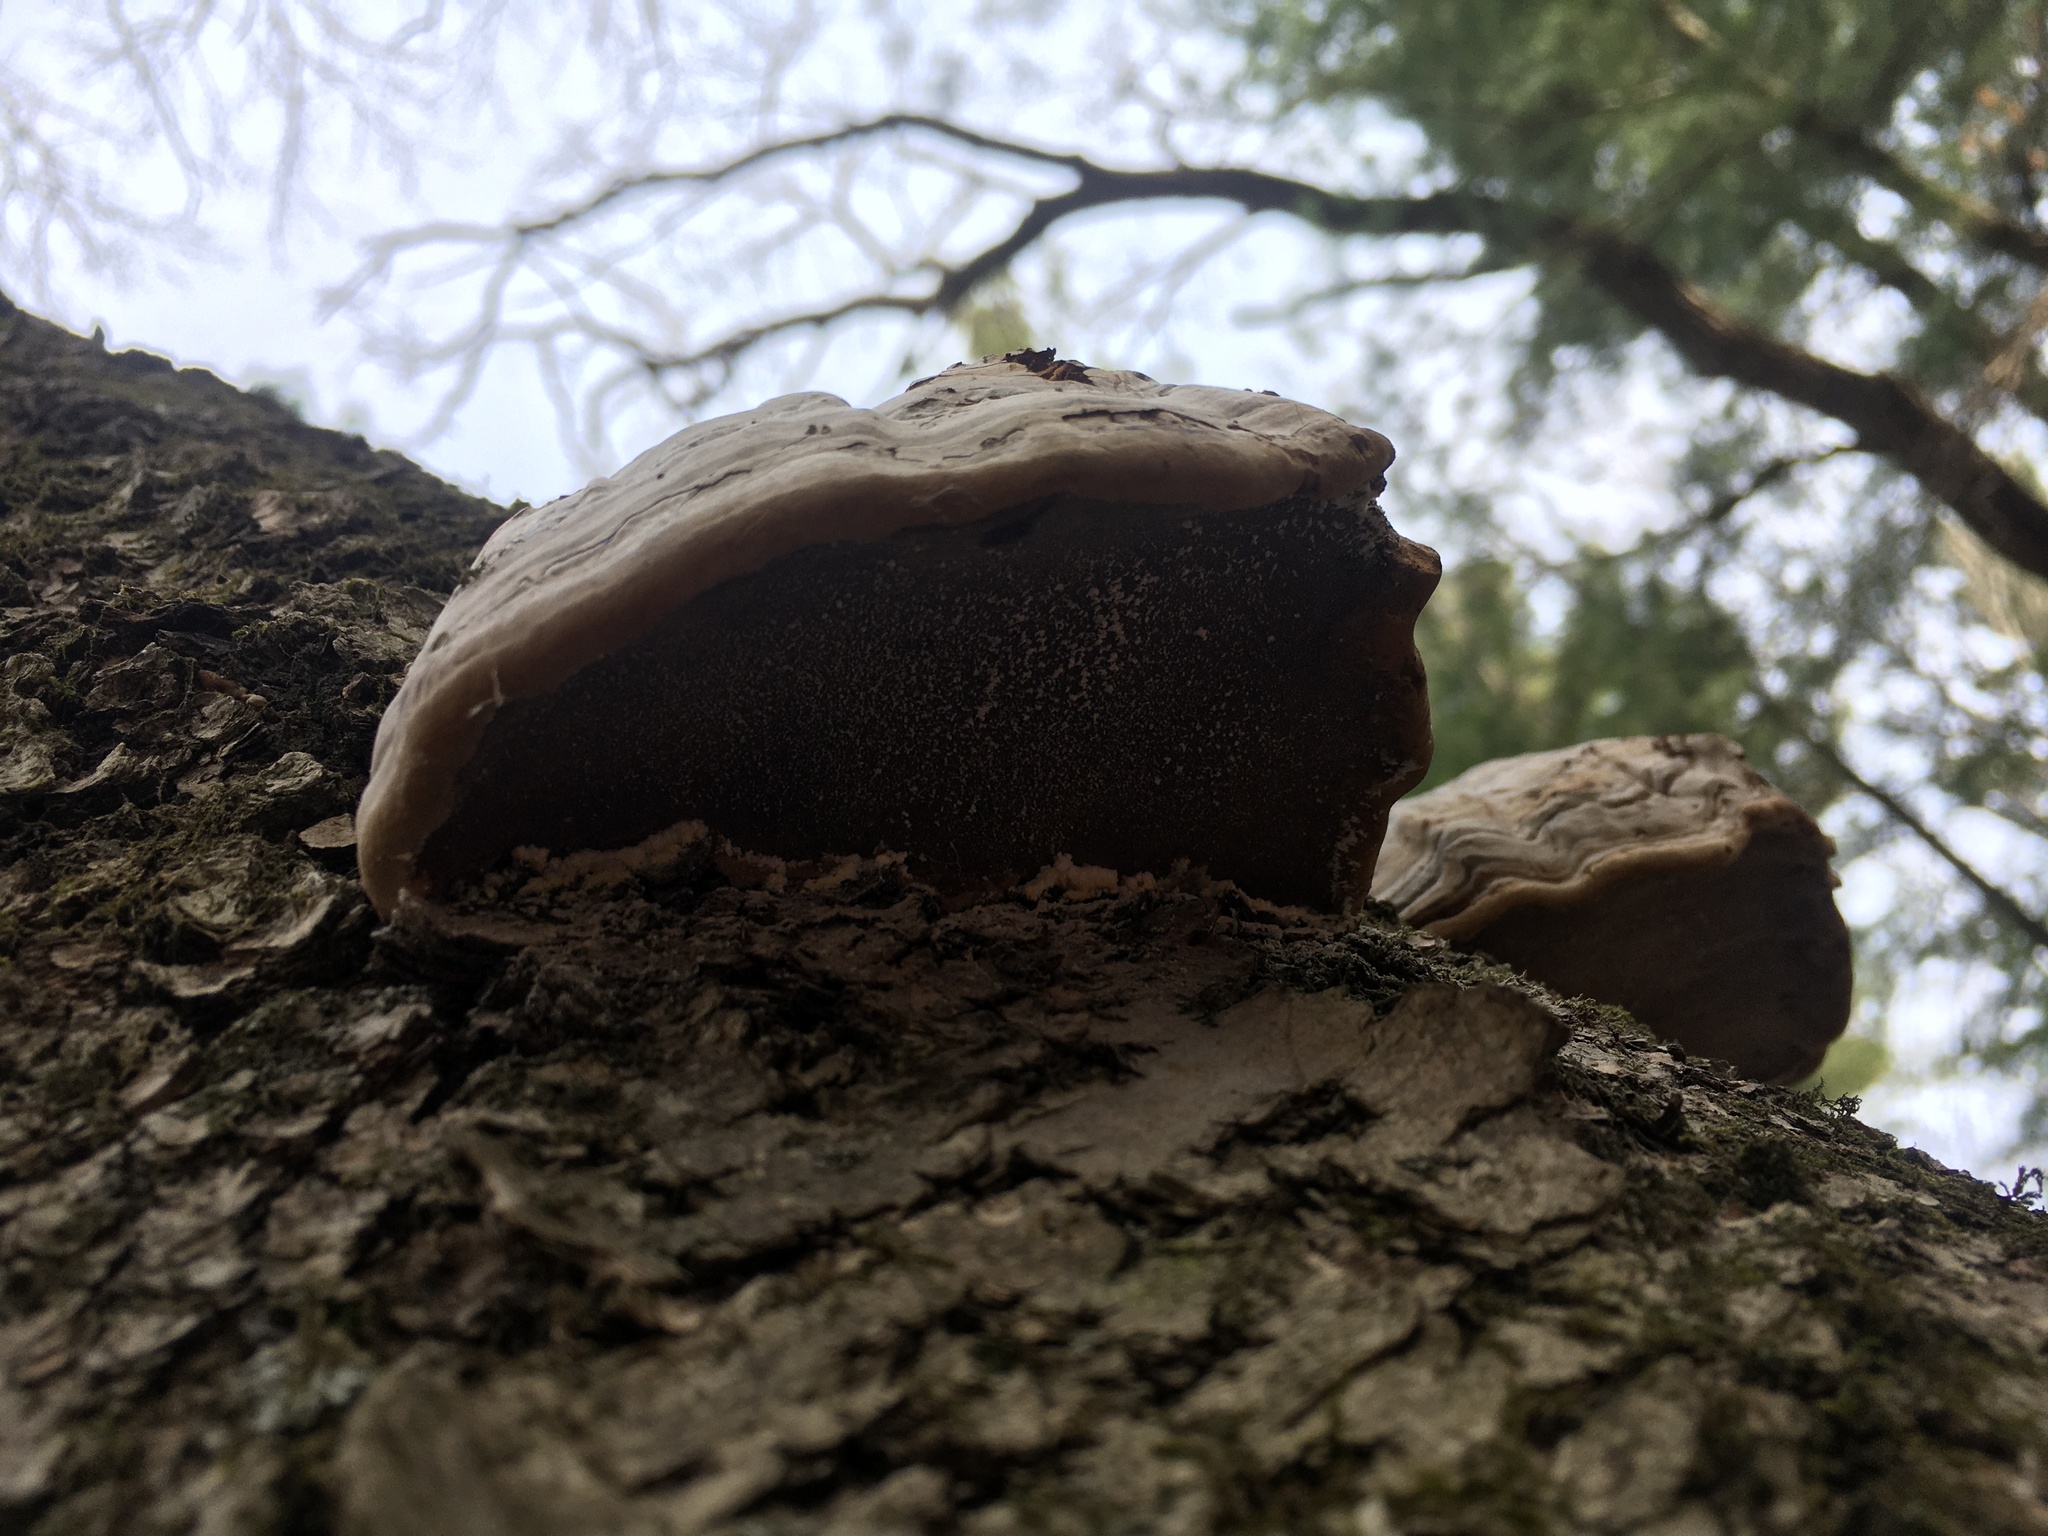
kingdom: Fungi
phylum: Basidiomycota
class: Agaricomycetes
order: Polyporales
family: Polyporaceae
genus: Fomes
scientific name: Fomes fomentarius
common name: Hoof fungus
